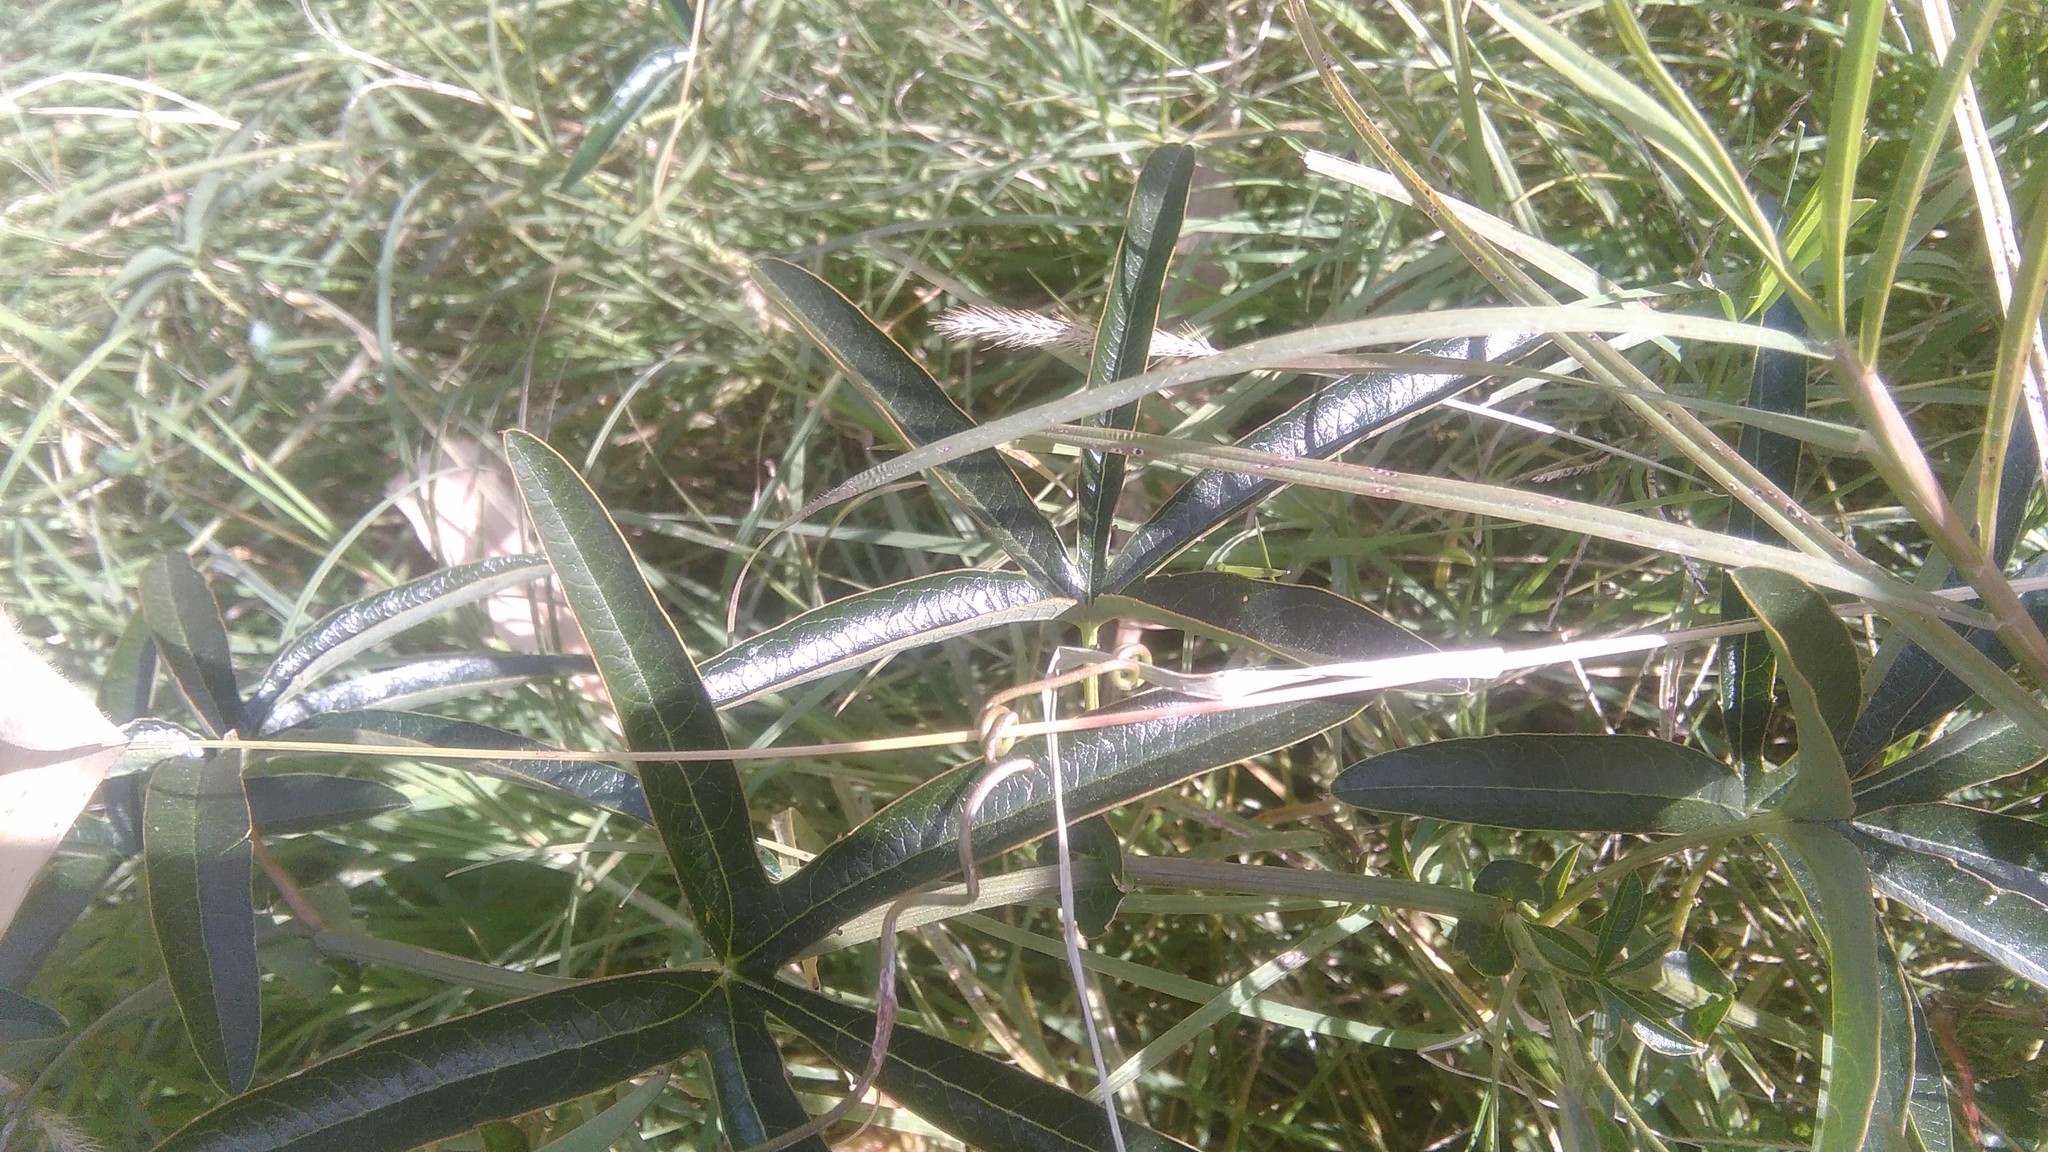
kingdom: Plantae
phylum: Tracheophyta
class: Magnoliopsida
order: Malpighiales
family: Passifloraceae
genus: Passiflora
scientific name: Passiflora caerulea
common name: Blue passionflower
